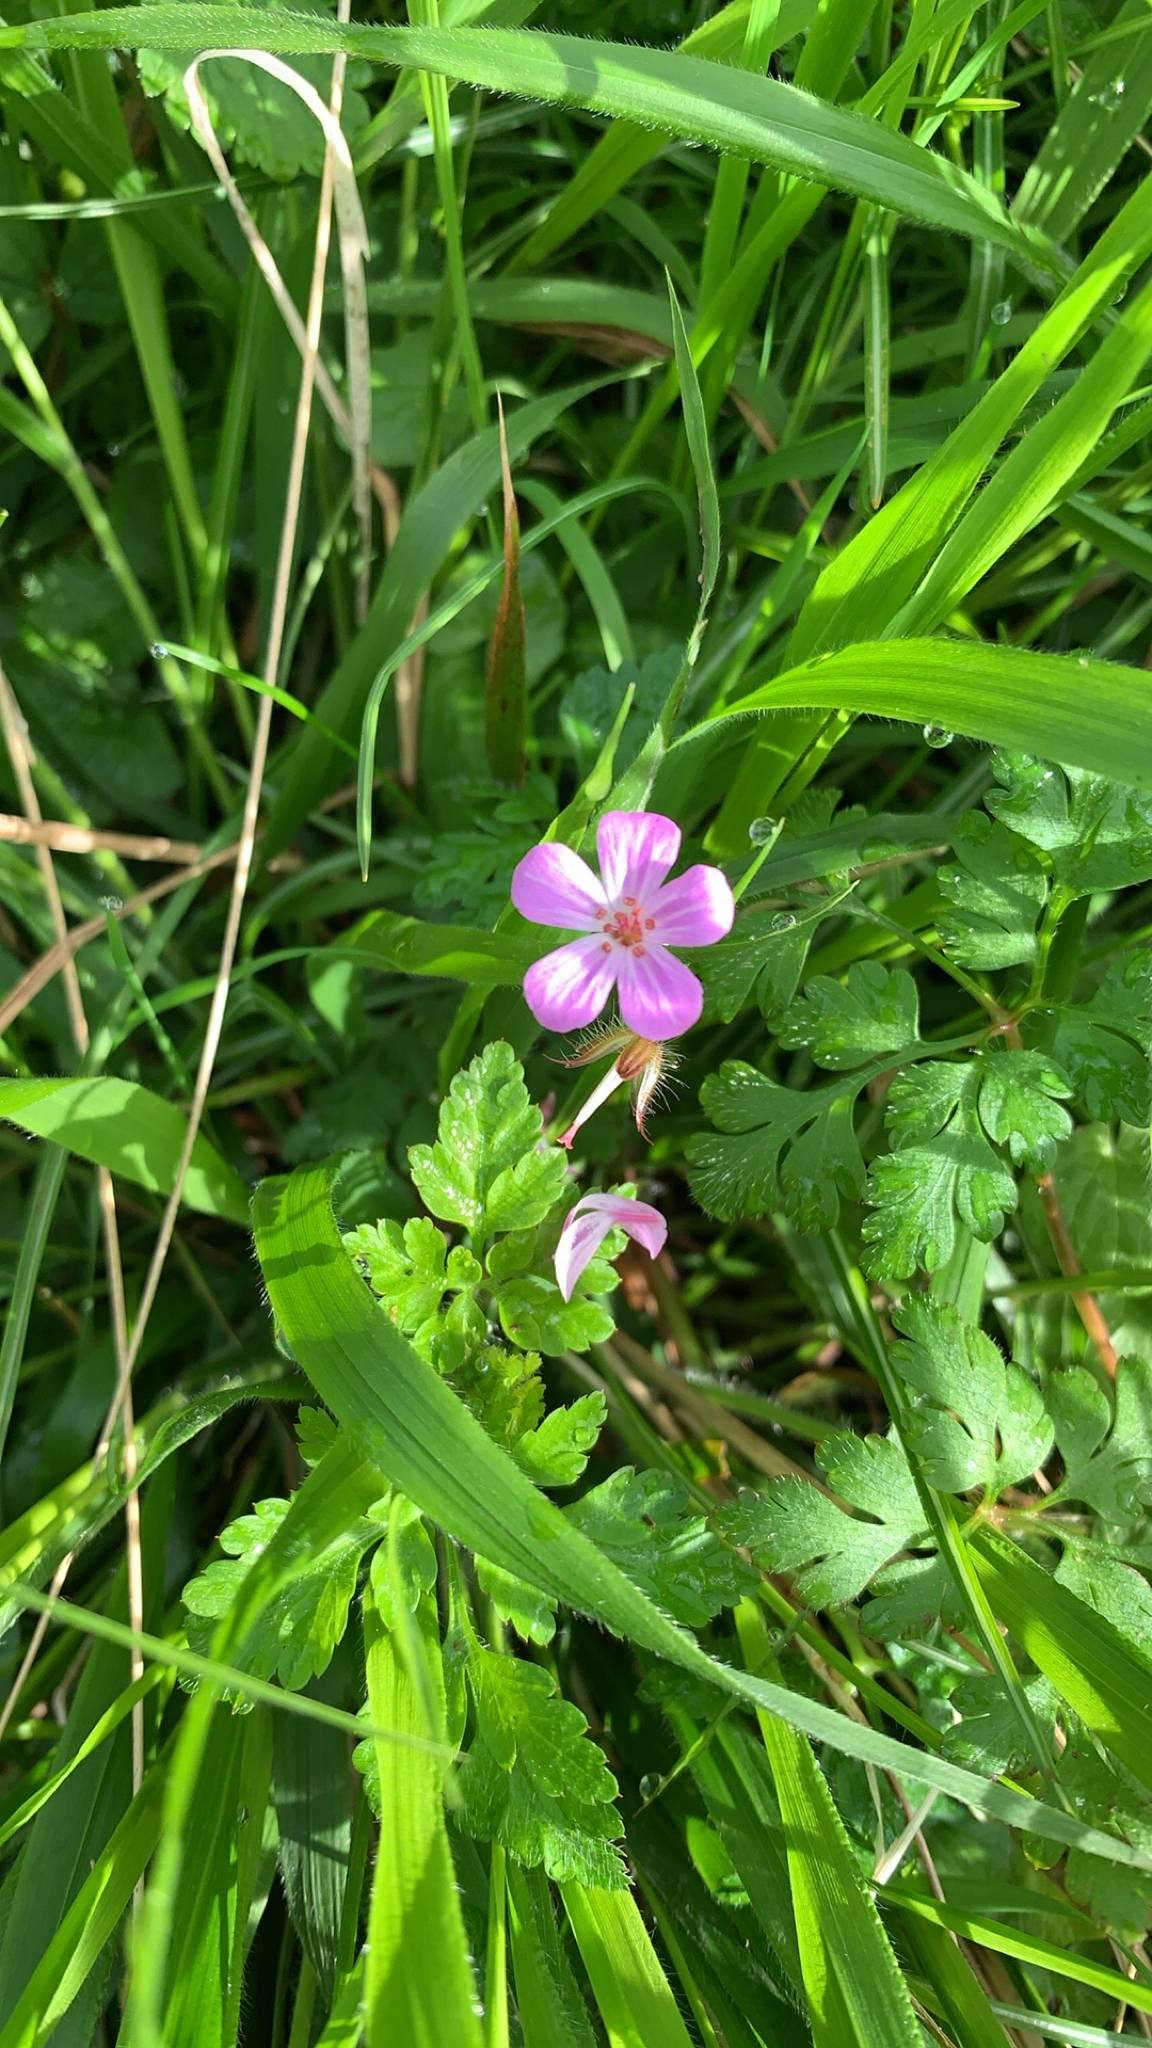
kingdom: Plantae
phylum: Tracheophyta
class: Magnoliopsida
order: Geraniales
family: Geraniaceae
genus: Geranium
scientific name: Geranium robertianum
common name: Herb-robert
